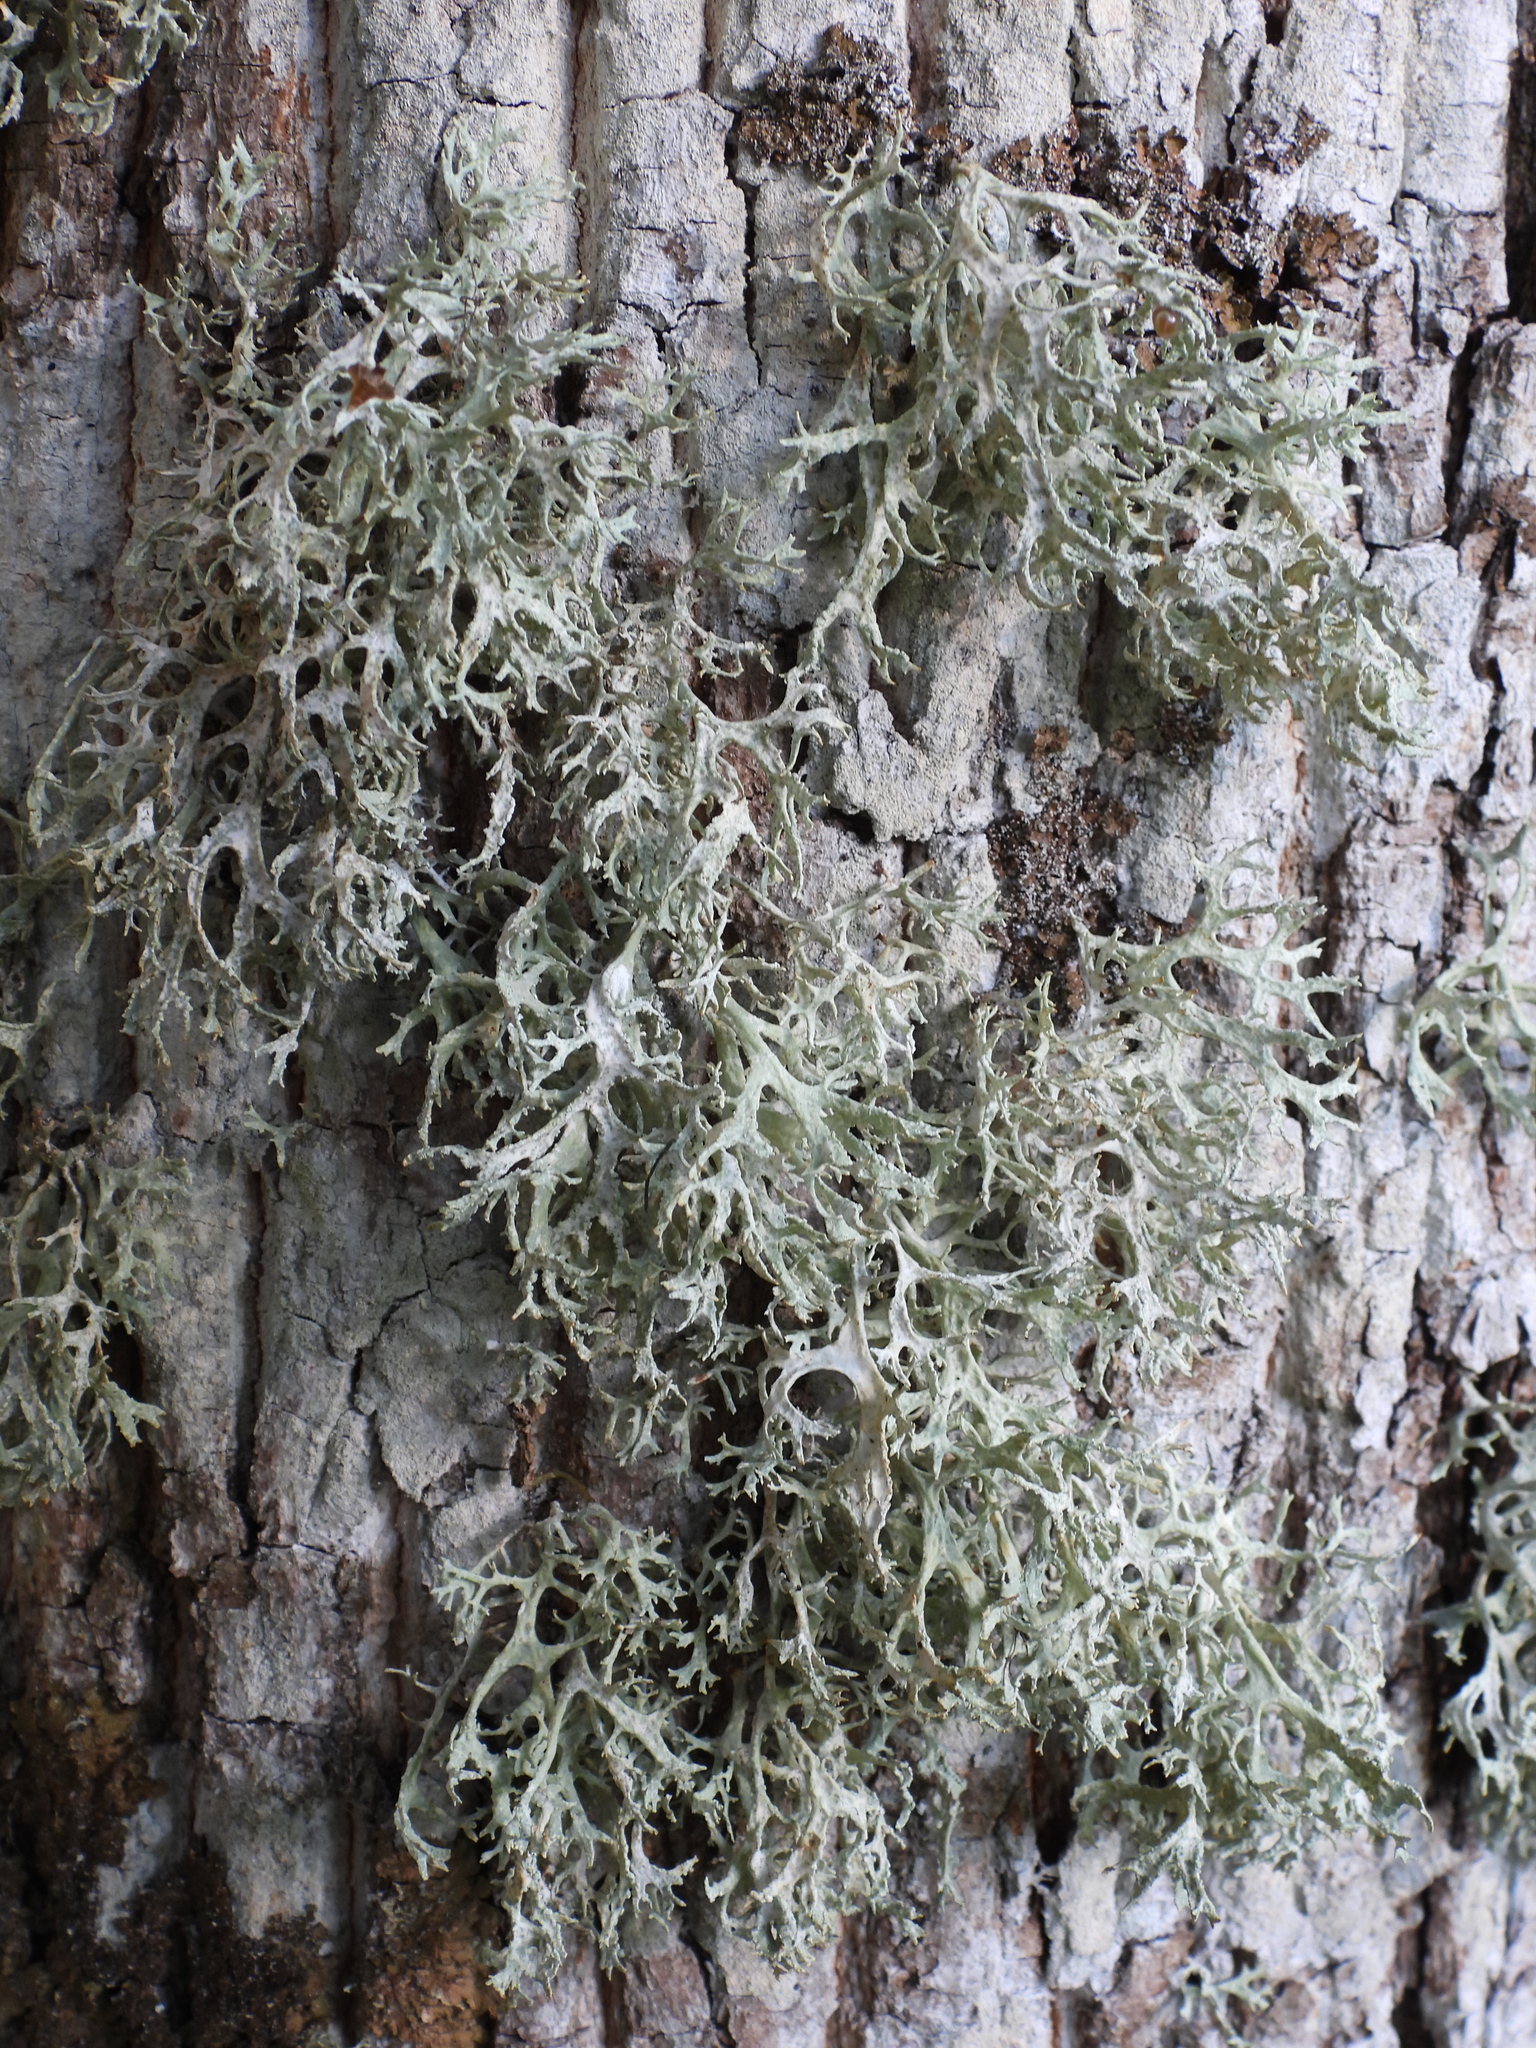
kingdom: Fungi
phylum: Ascomycota
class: Lecanoromycetes
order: Lecanorales
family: Parmeliaceae
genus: Evernia
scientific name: Evernia prunastri
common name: Oak moss
